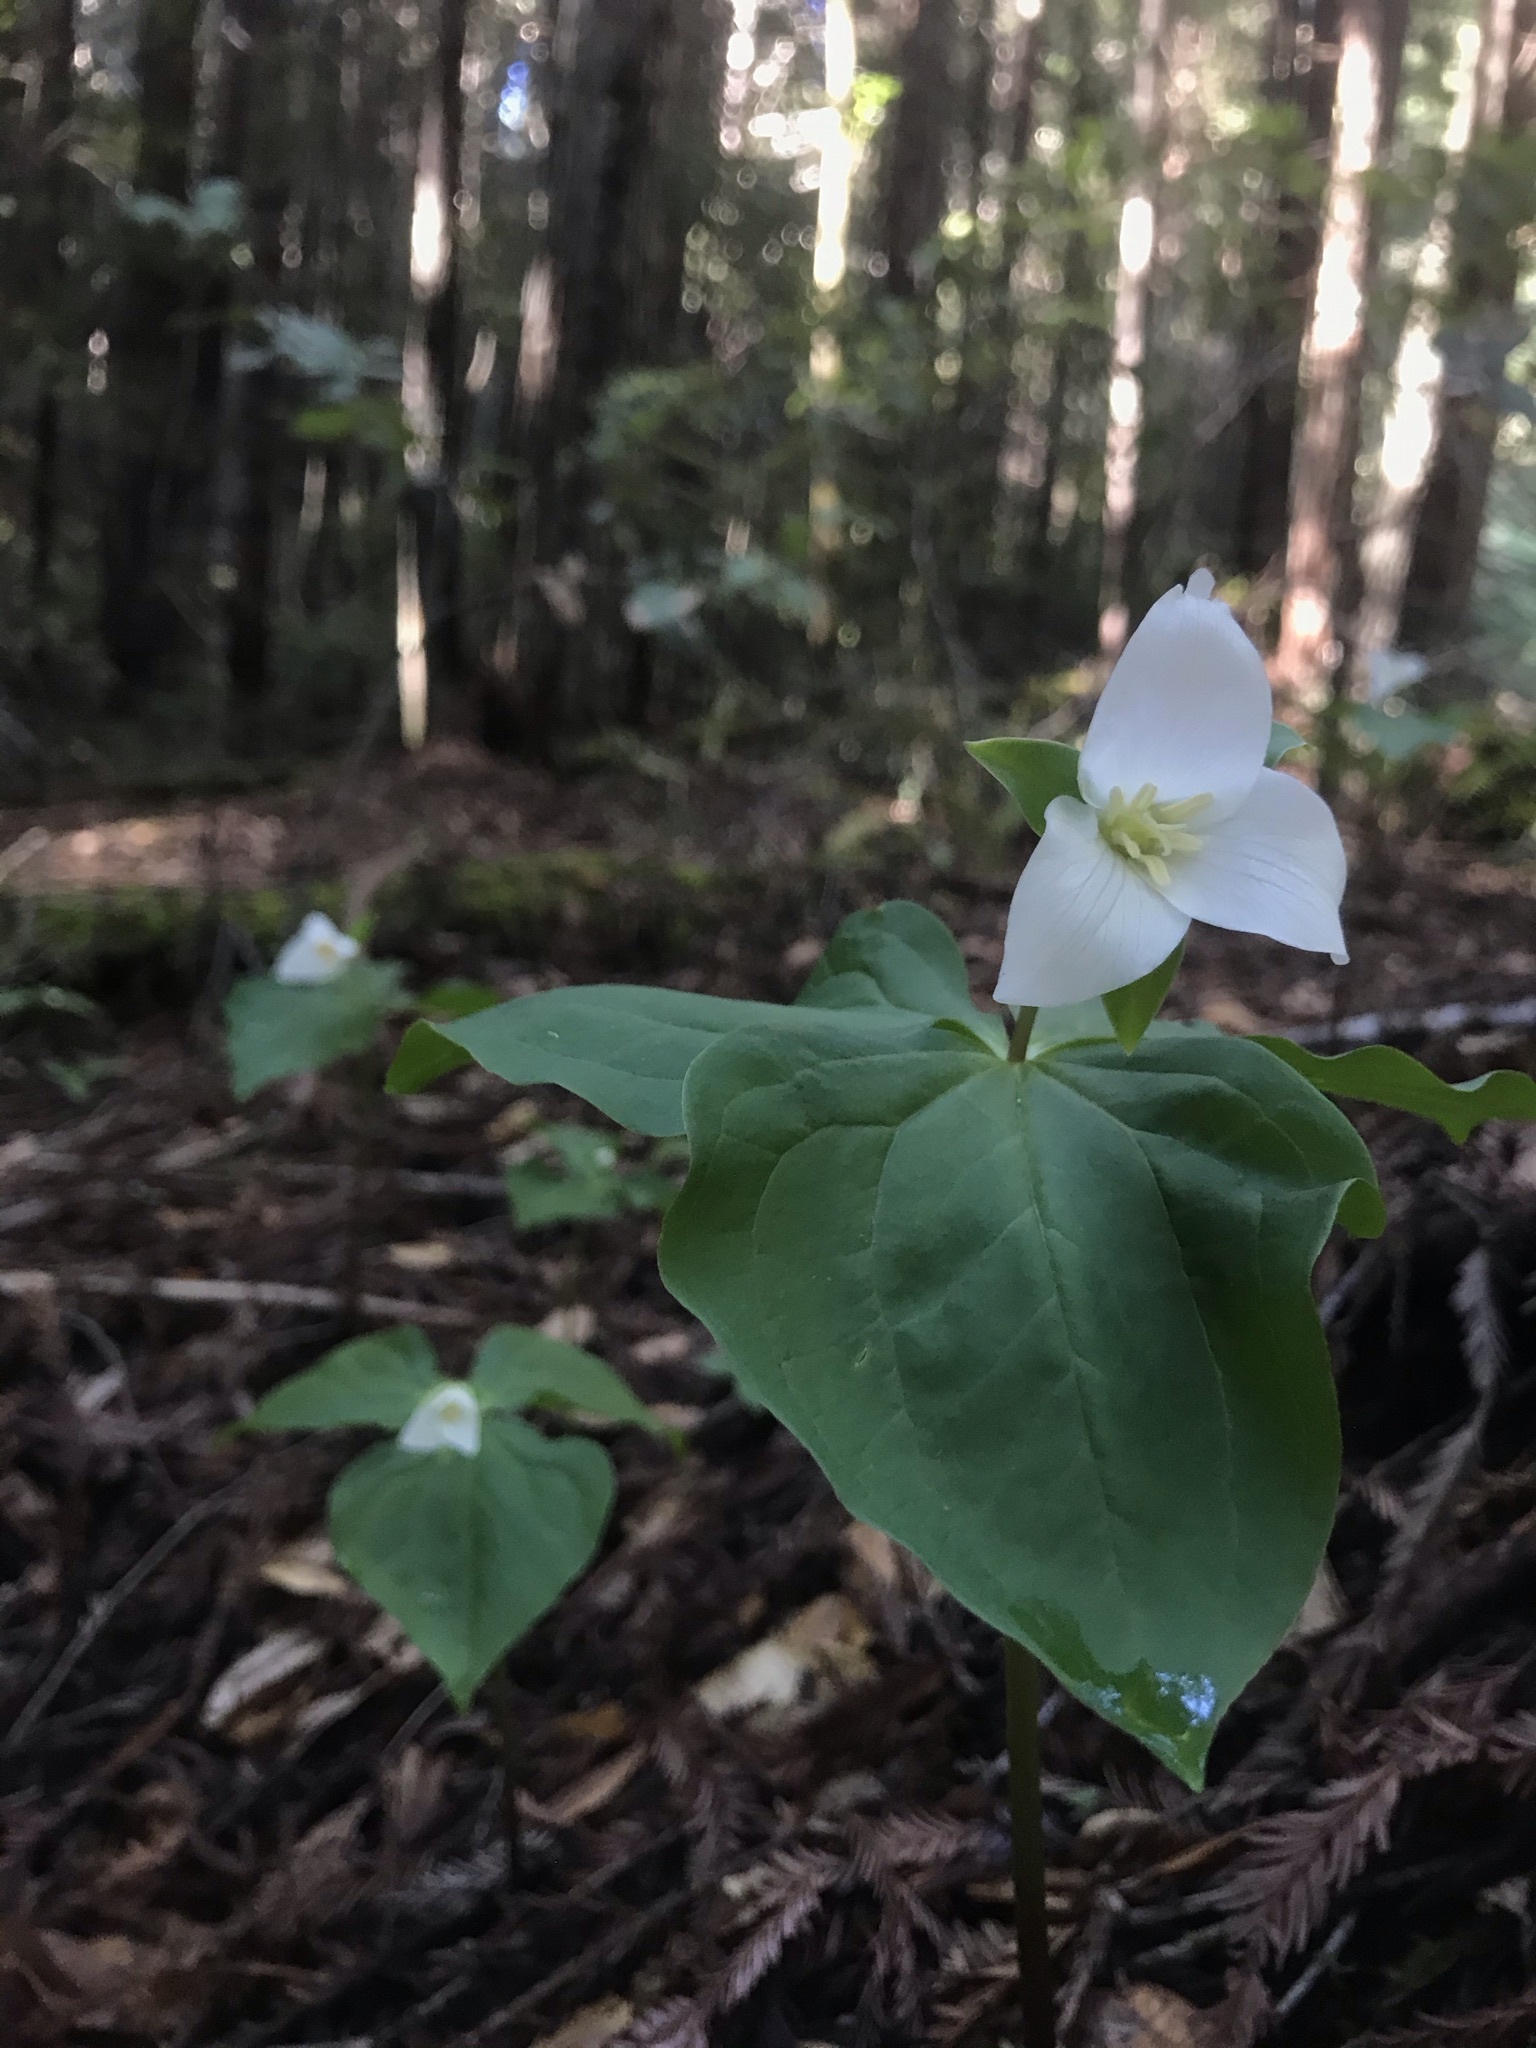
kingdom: Plantae
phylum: Tracheophyta
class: Liliopsida
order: Liliales
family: Melanthiaceae
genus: Trillium
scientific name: Trillium ovatum
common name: Pacific trillium
